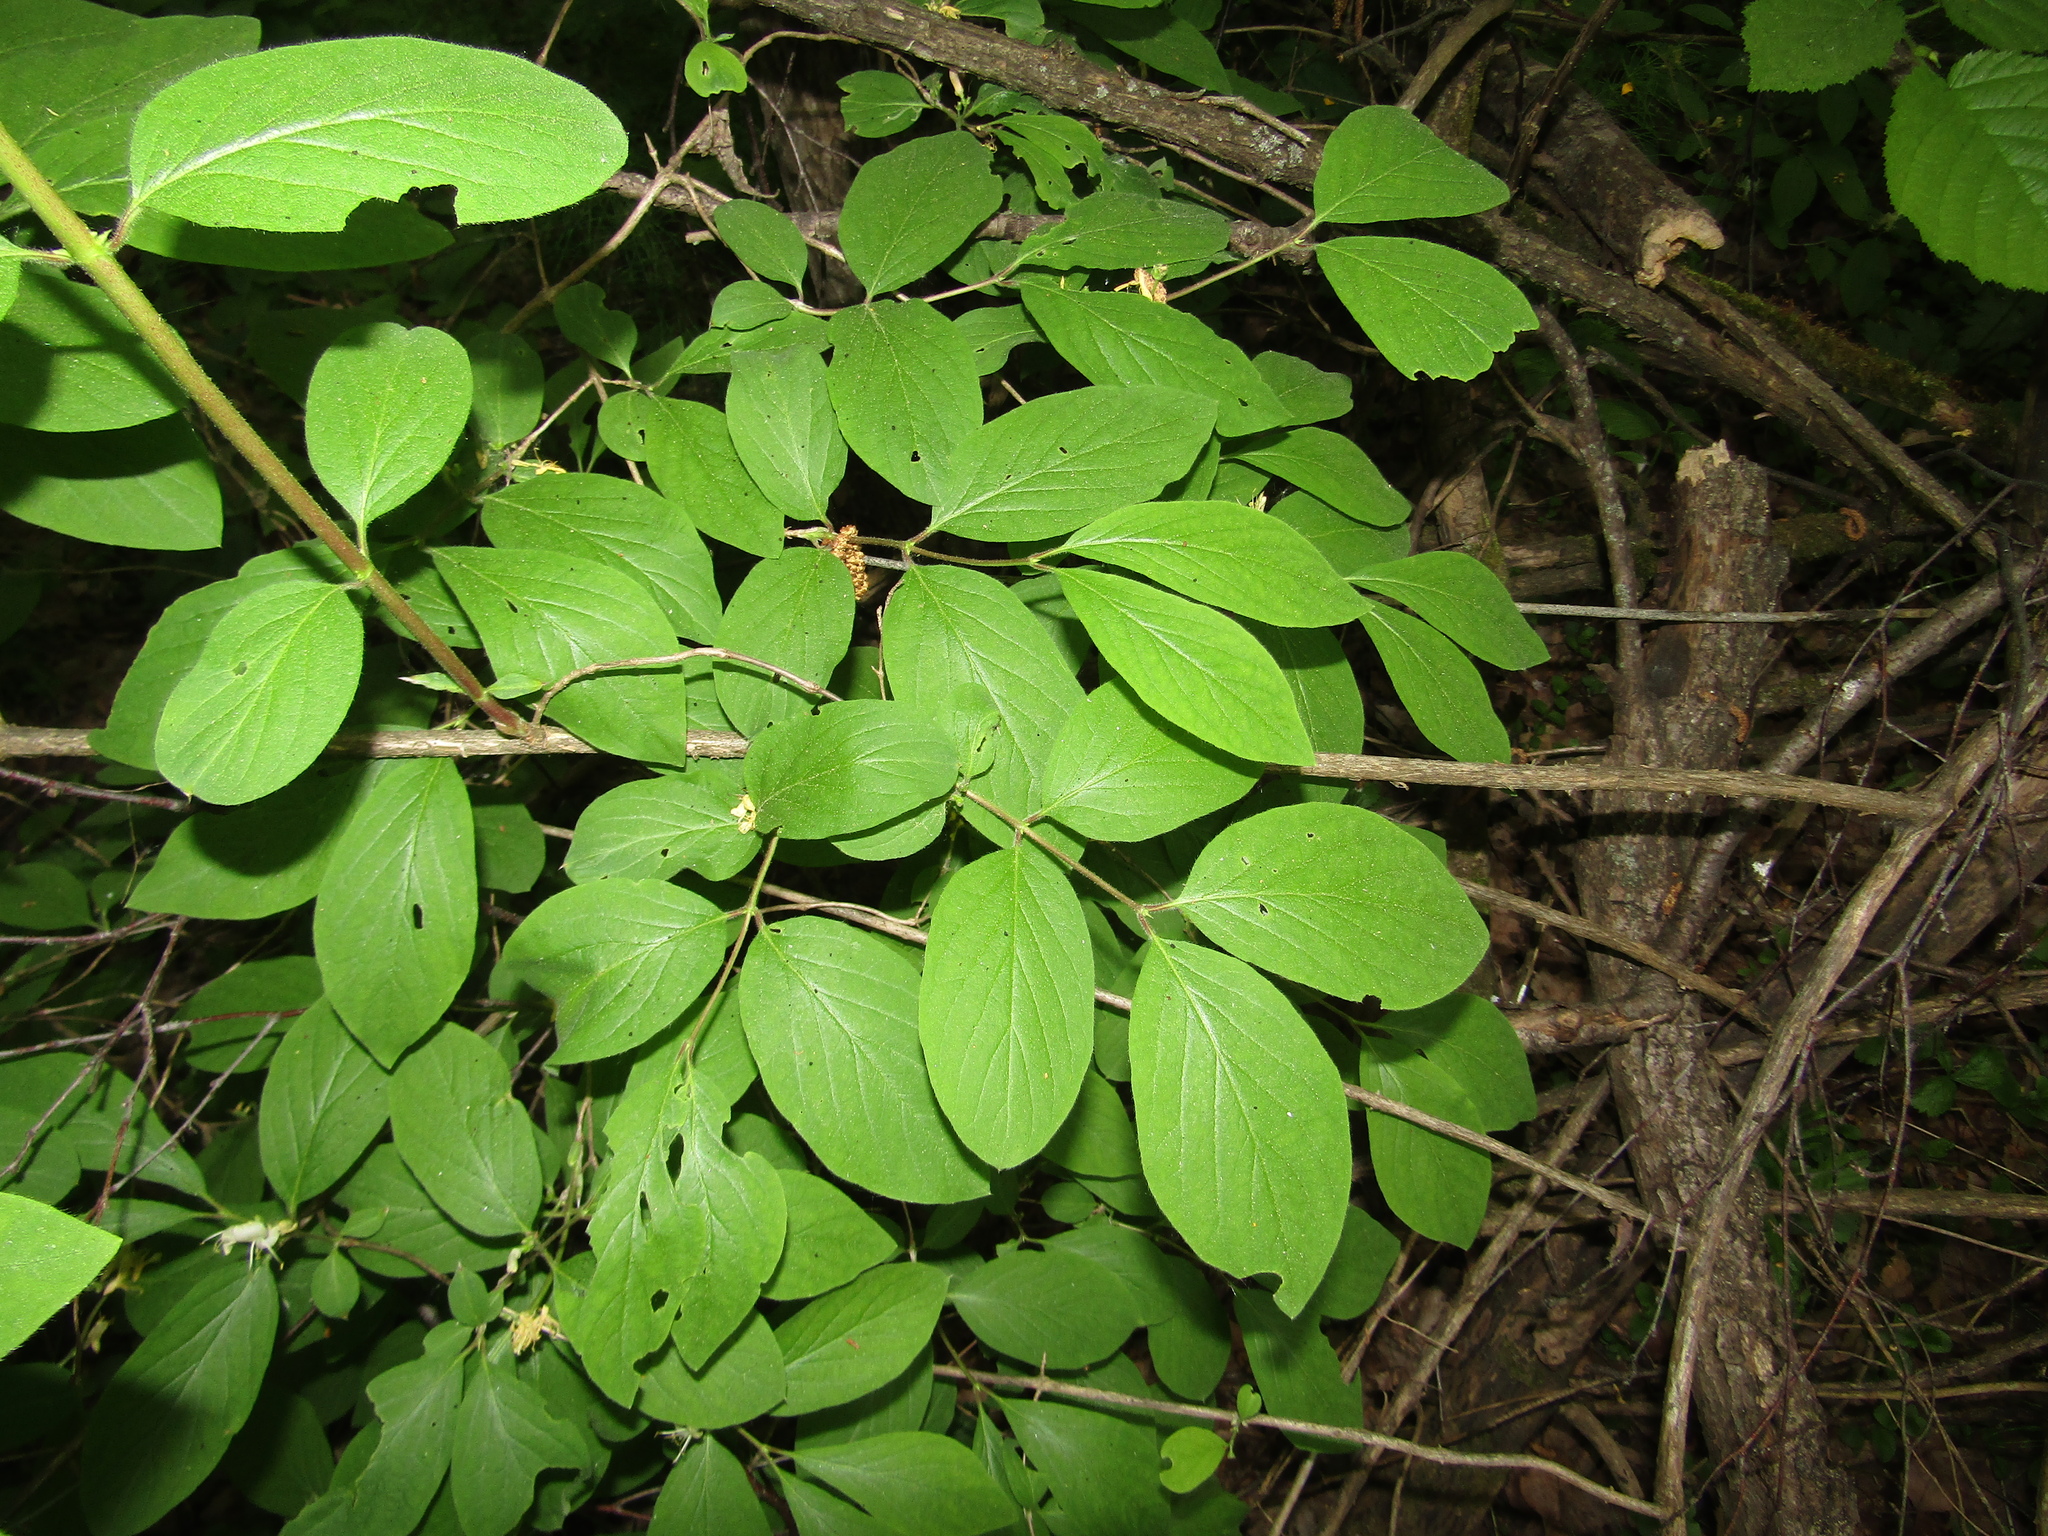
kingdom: Plantae
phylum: Tracheophyta
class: Magnoliopsida
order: Dipsacales
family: Caprifoliaceae
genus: Lonicera
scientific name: Lonicera xylosteum
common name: Fly honeysuckle
